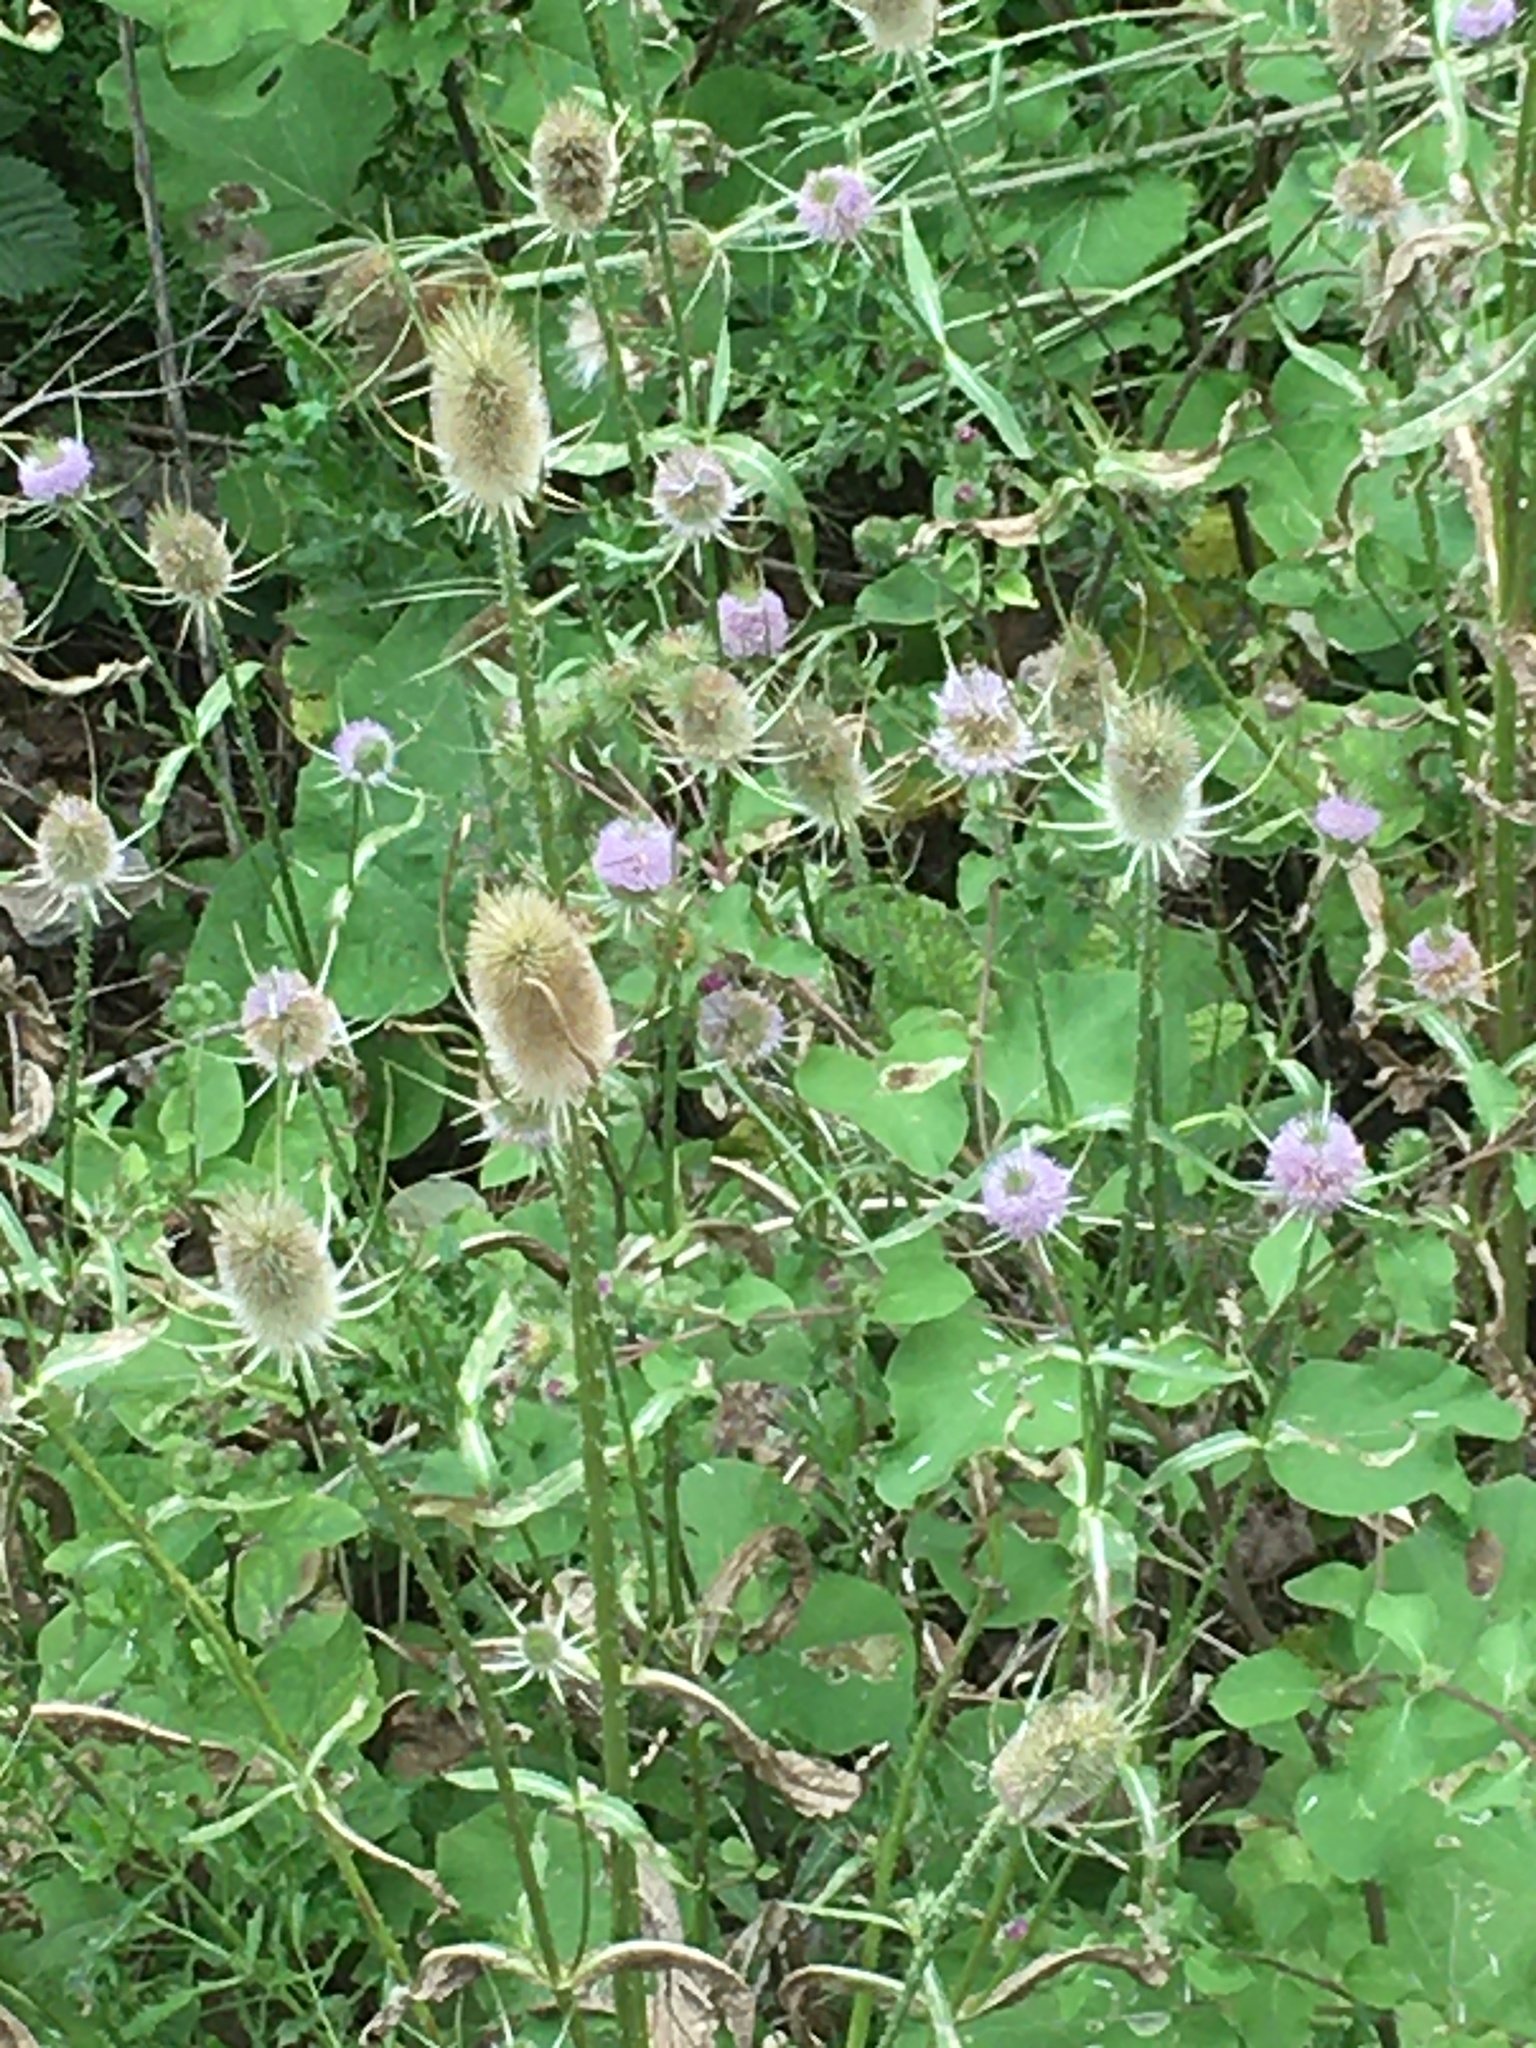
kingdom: Plantae
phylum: Tracheophyta
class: Magnoliopsida
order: Dipsacales
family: Caprifoliaceae
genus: Dipsacus
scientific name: Dipsacus fullonum
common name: Teasel
